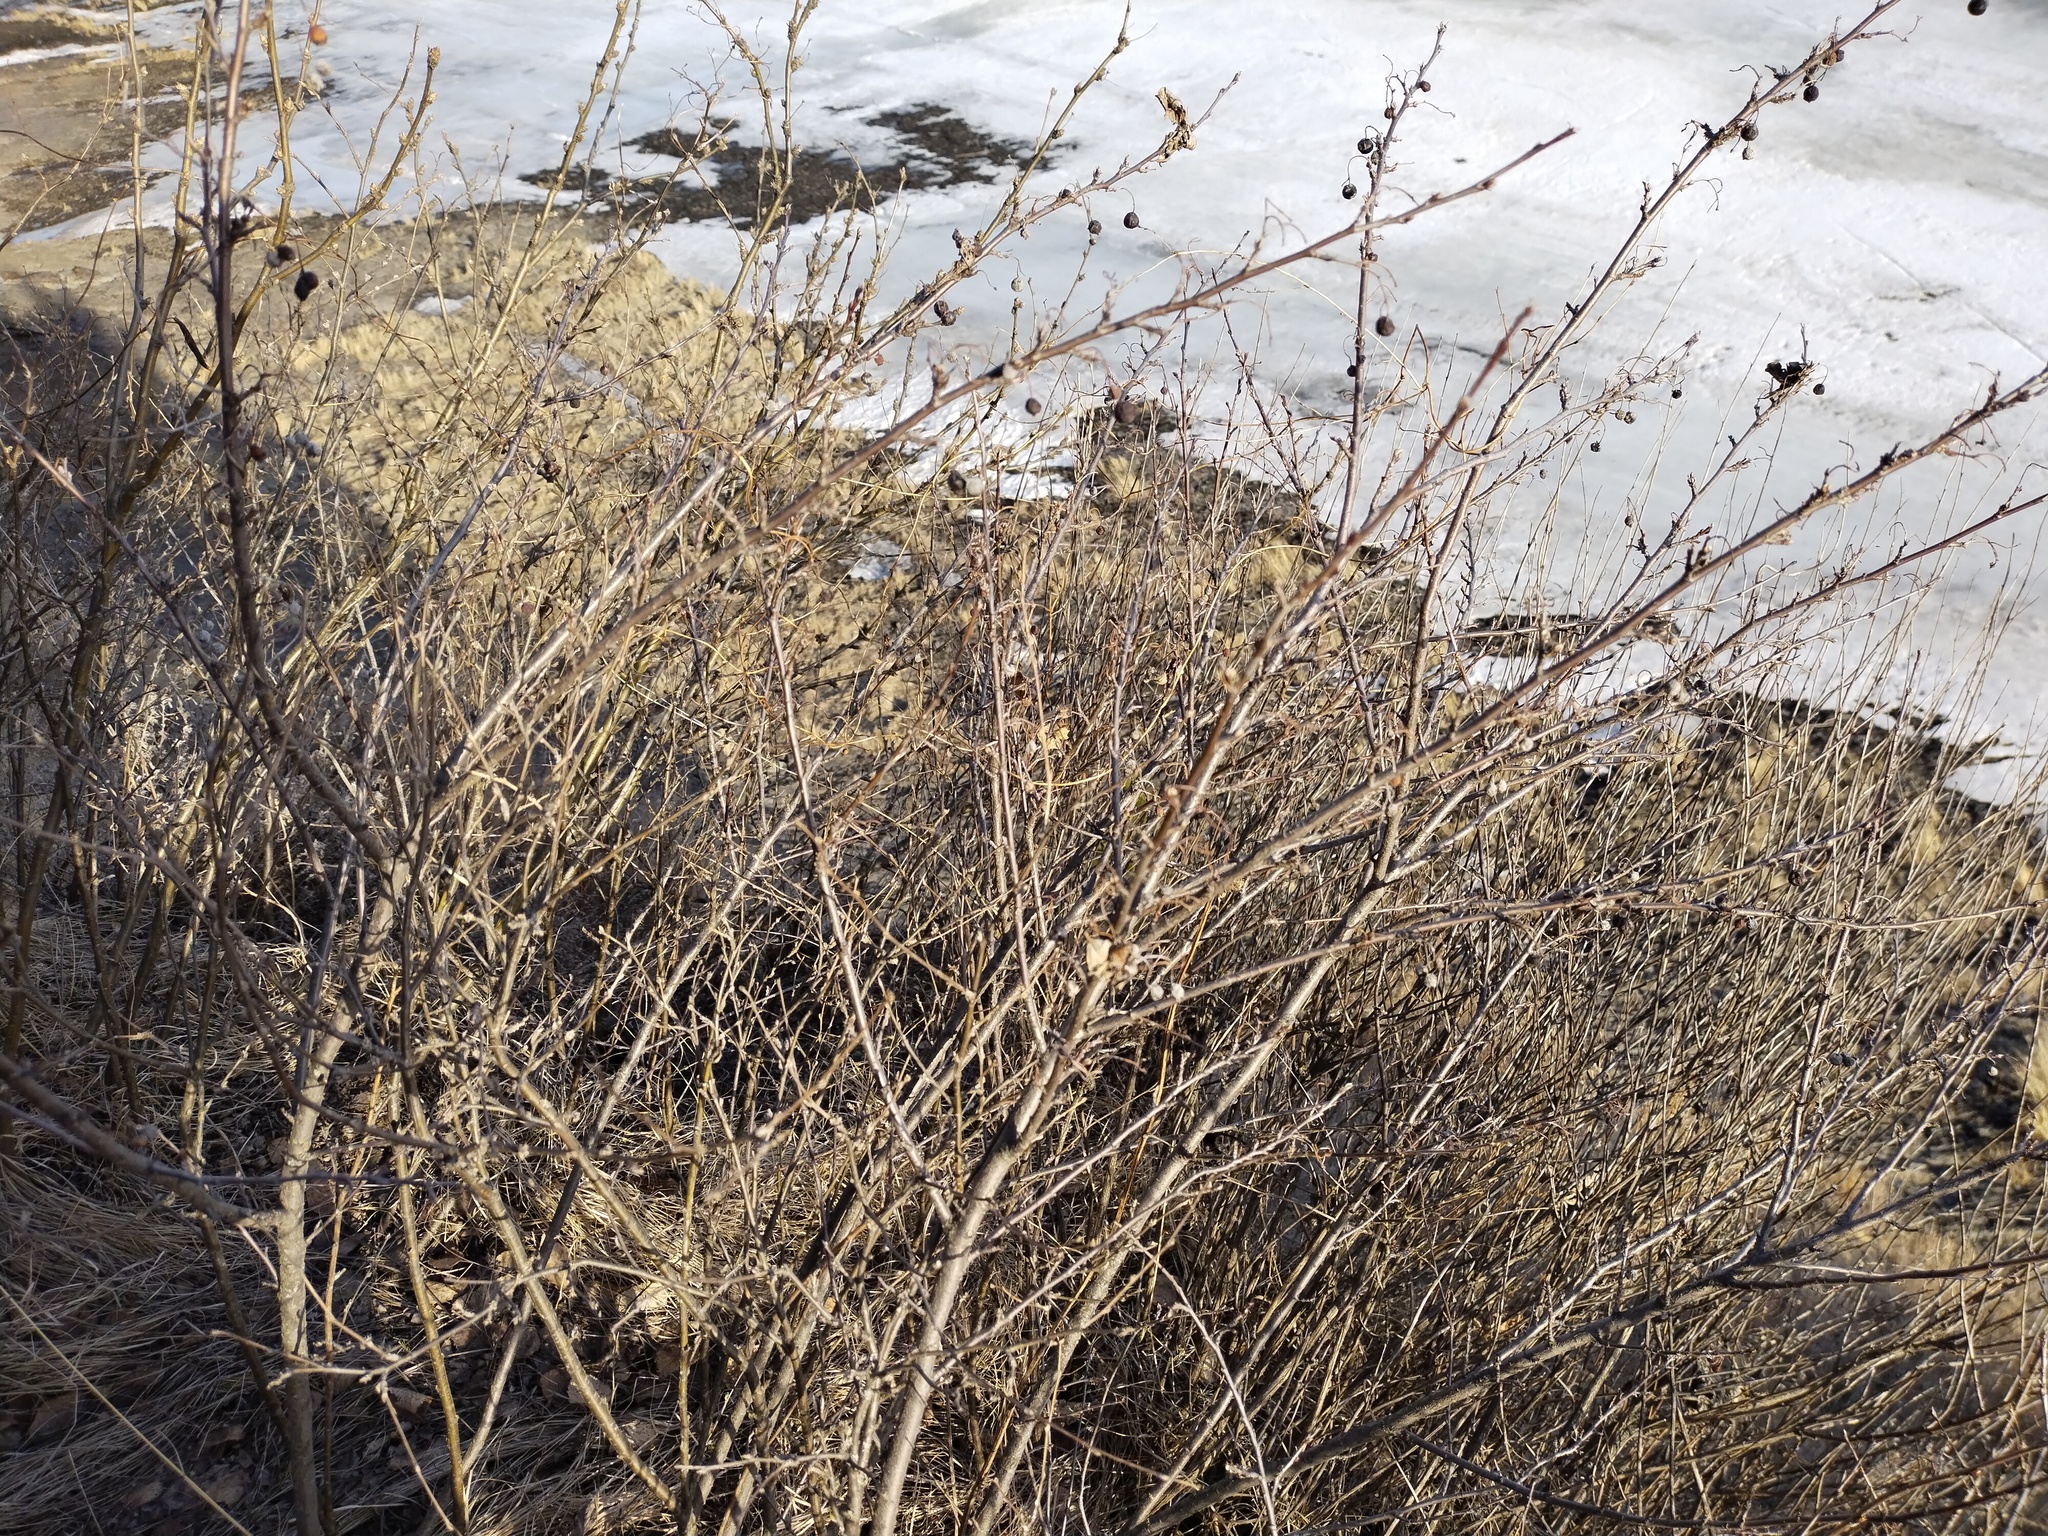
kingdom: Plantae
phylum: Tracheophyta
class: Magnoliopsida
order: Rosales
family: Rosaceae
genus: Cotoneaster
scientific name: Cotoneaster melanocarpus
